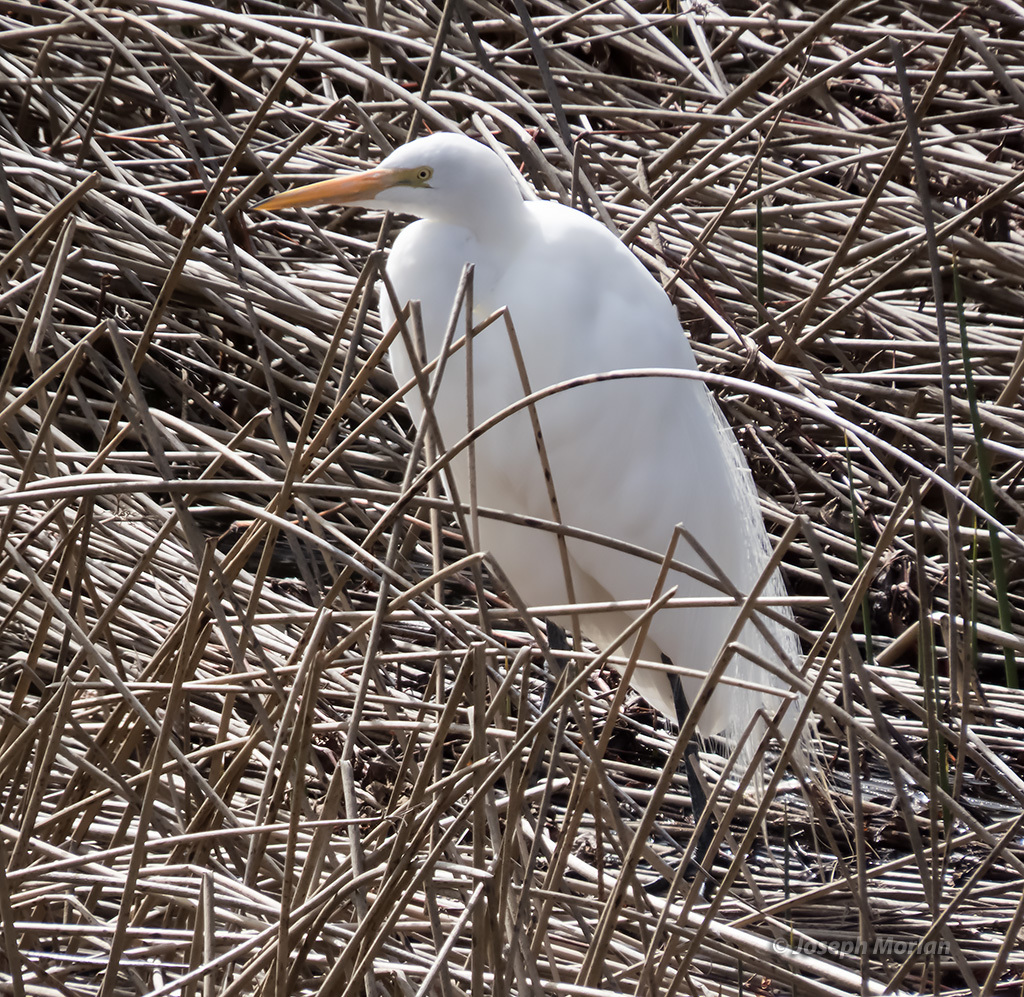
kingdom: Animalia
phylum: Chordata
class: Aves
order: Pelecaniformes
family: Ardeidae
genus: Ardea
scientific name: Ardea alba
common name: Great egret
